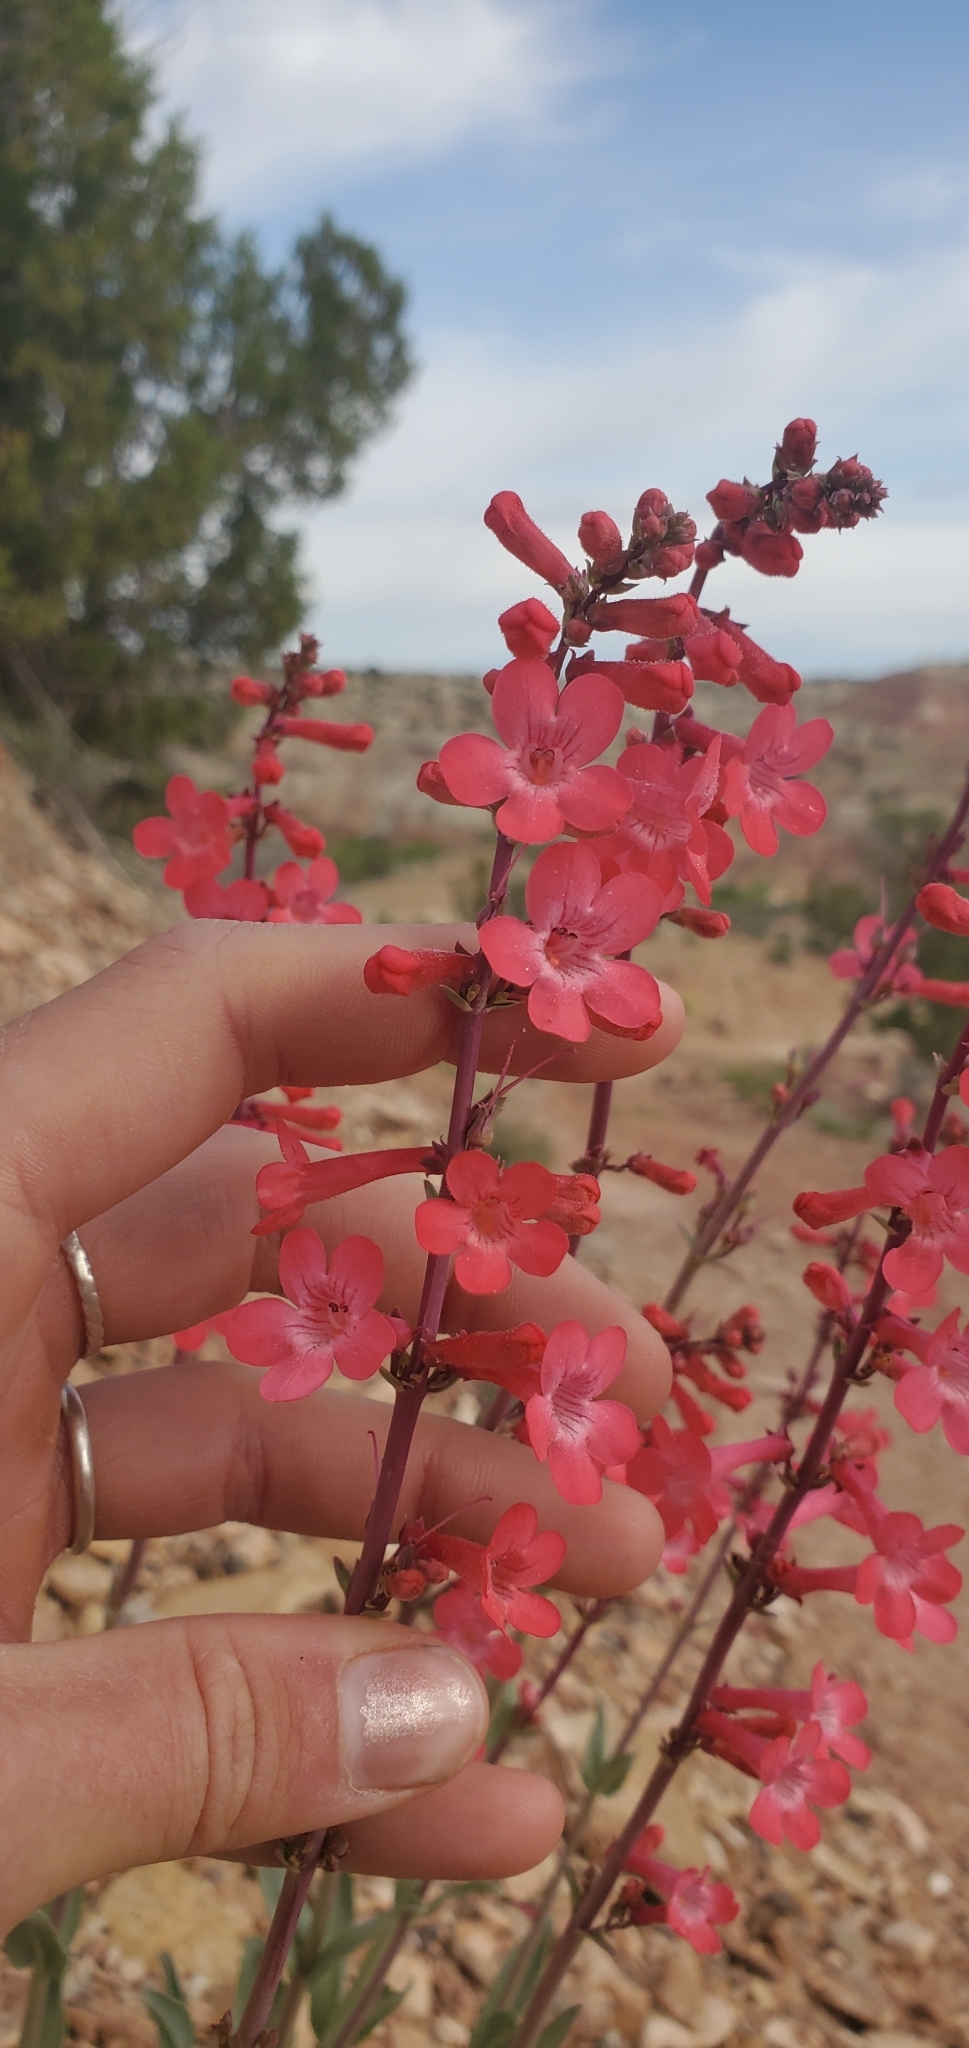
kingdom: Plantae
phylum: Tracheophyta
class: Magnoliopsida
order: Lamiales
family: Plantaginaceae
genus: Penstemon
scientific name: Penstemon utahensis
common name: Utah penstemon
